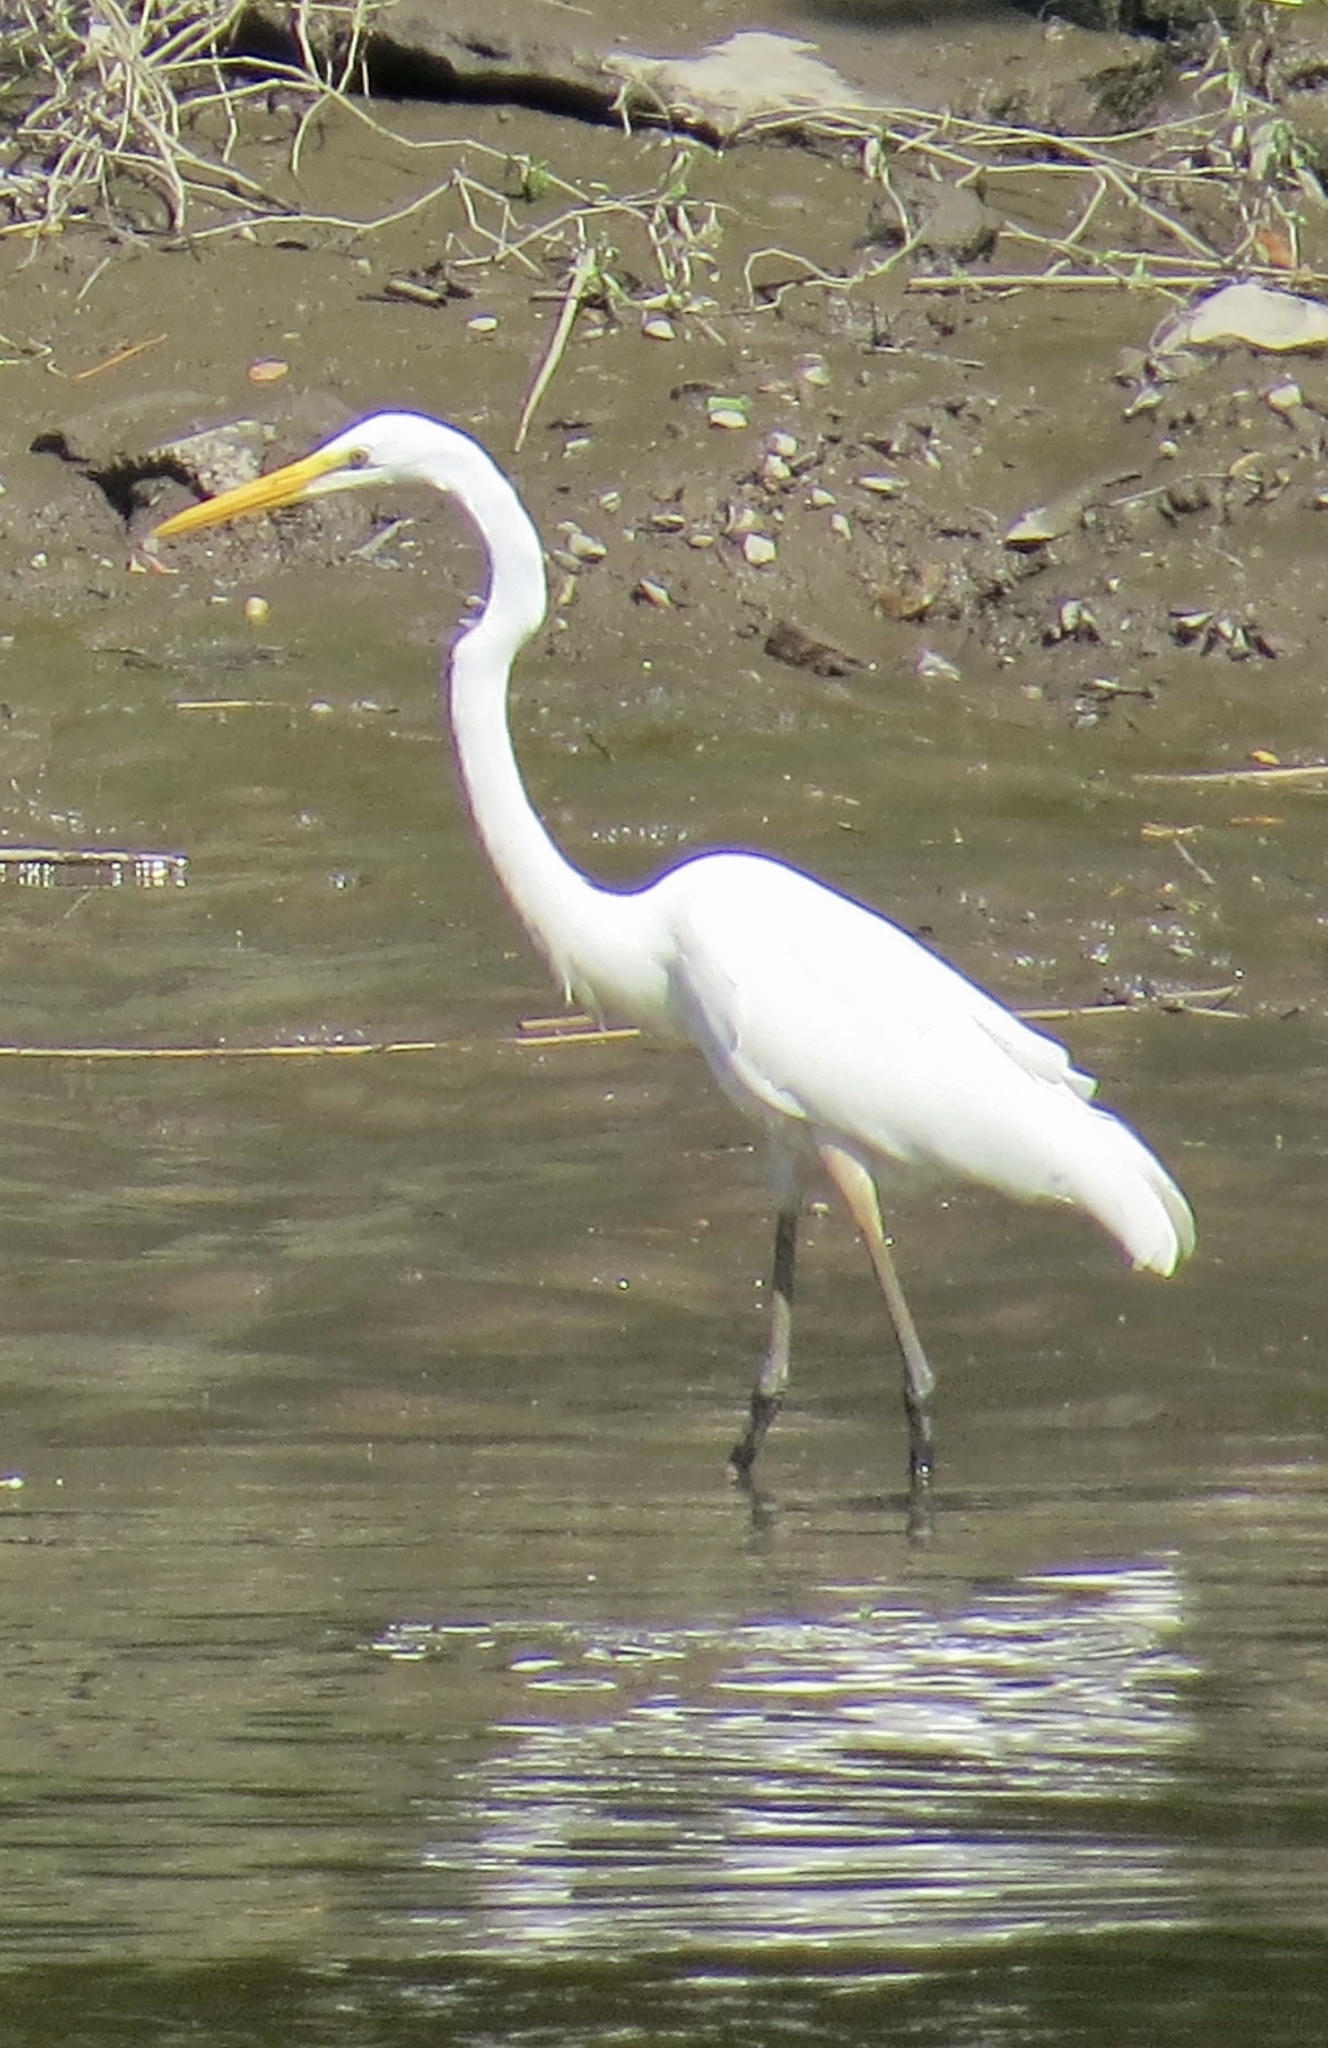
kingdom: Animalia
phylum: Chordata
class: Aves
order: Pelecaniformes
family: Ardeidae
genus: Ardea
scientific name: Ardea alba
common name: Great egret
